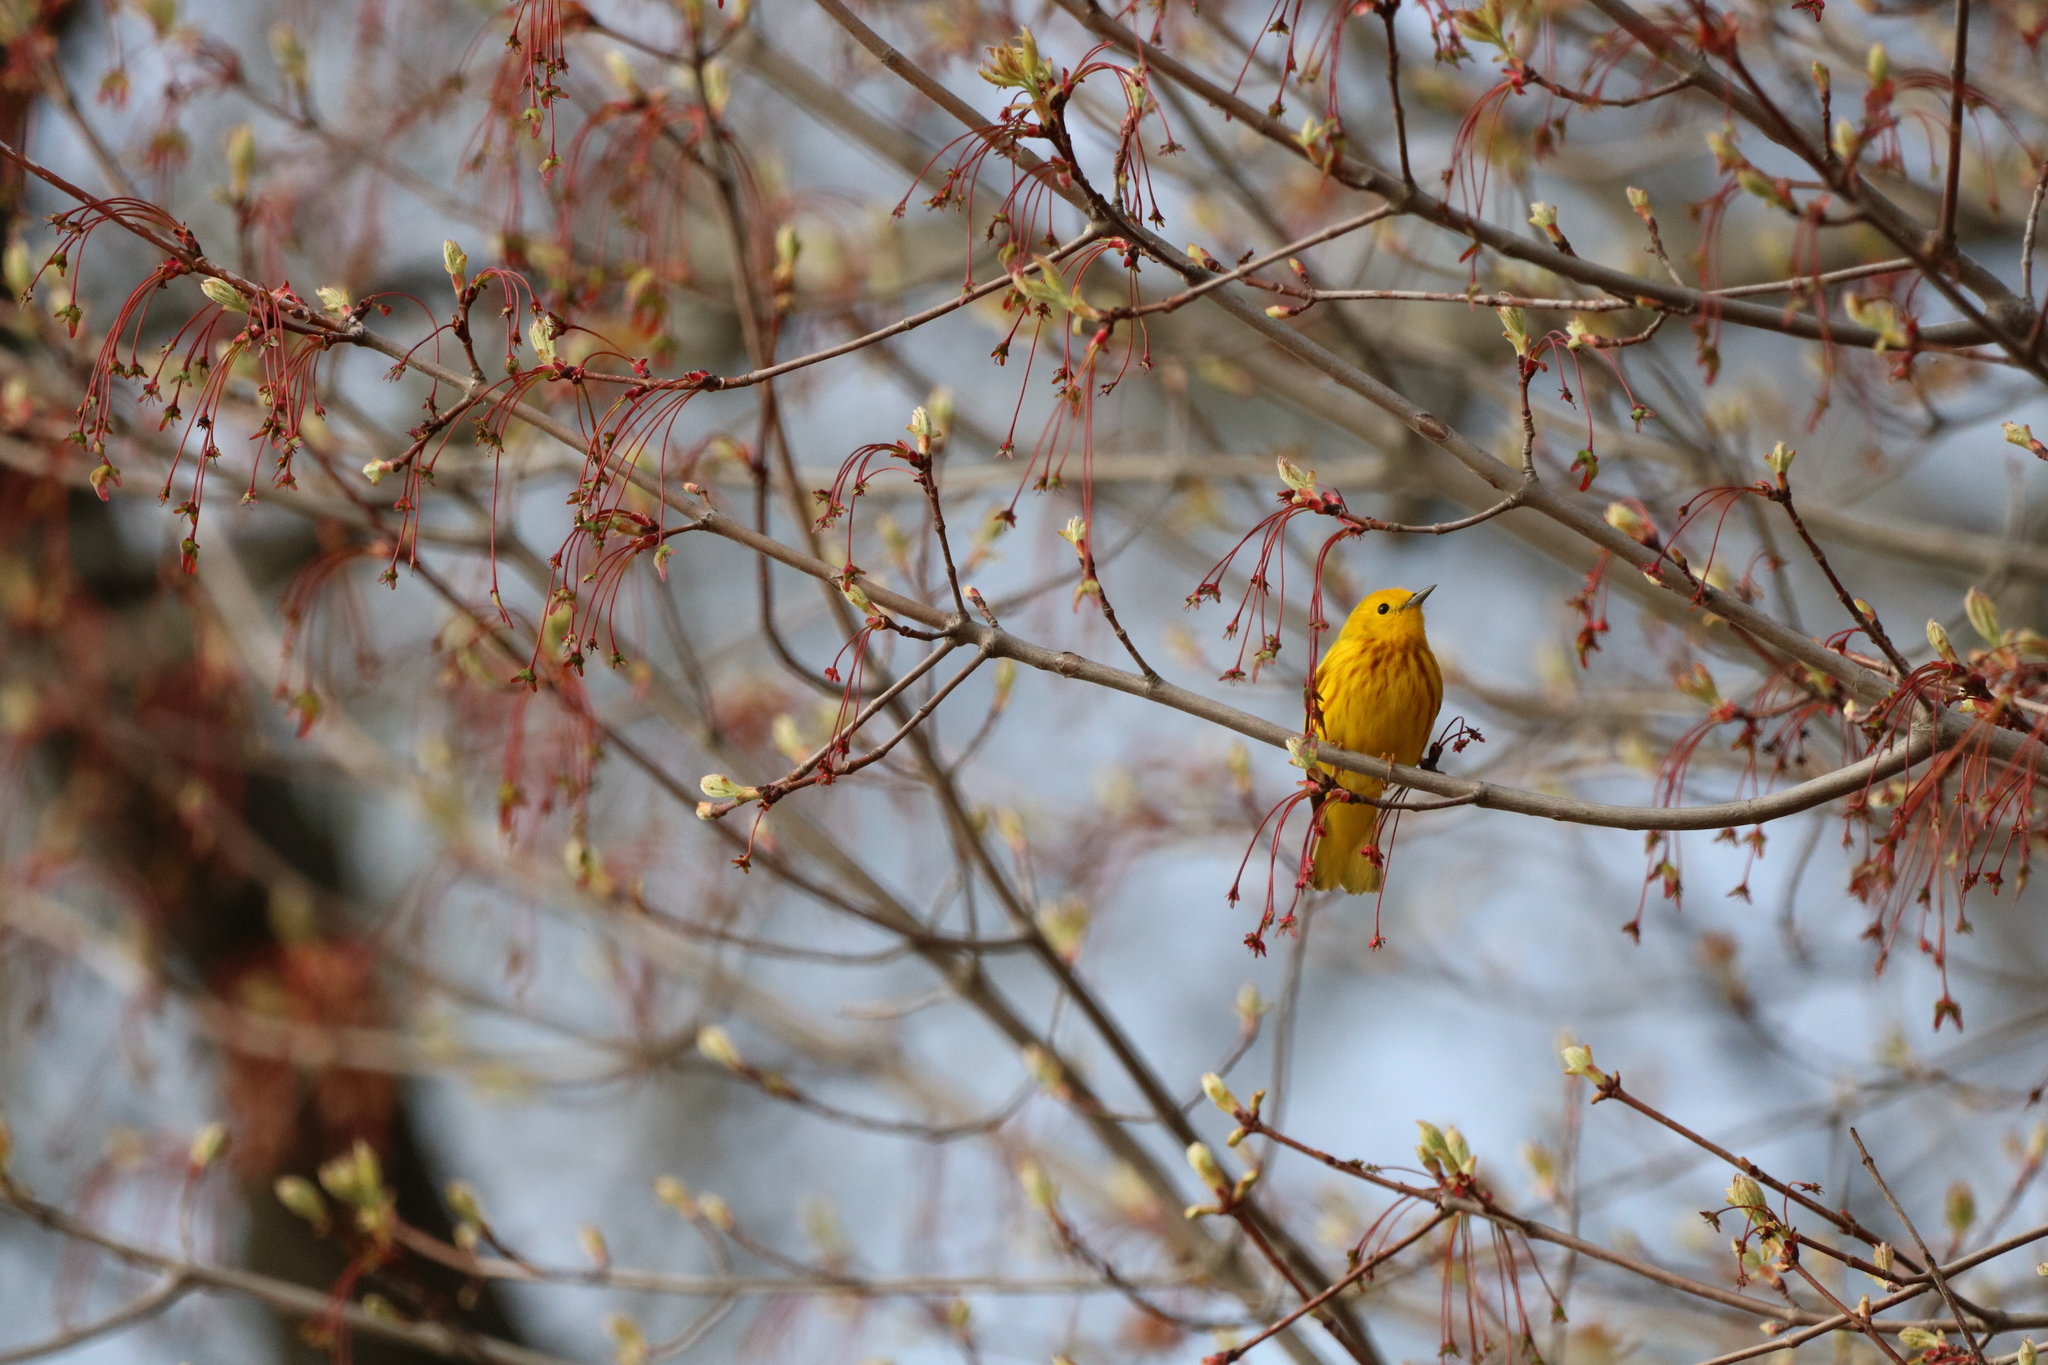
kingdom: Animalia
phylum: Chordata
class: Aves
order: Passeriformes
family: Parulidae
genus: Setophaga
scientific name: Setophaga petechia
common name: Yellow warbler
